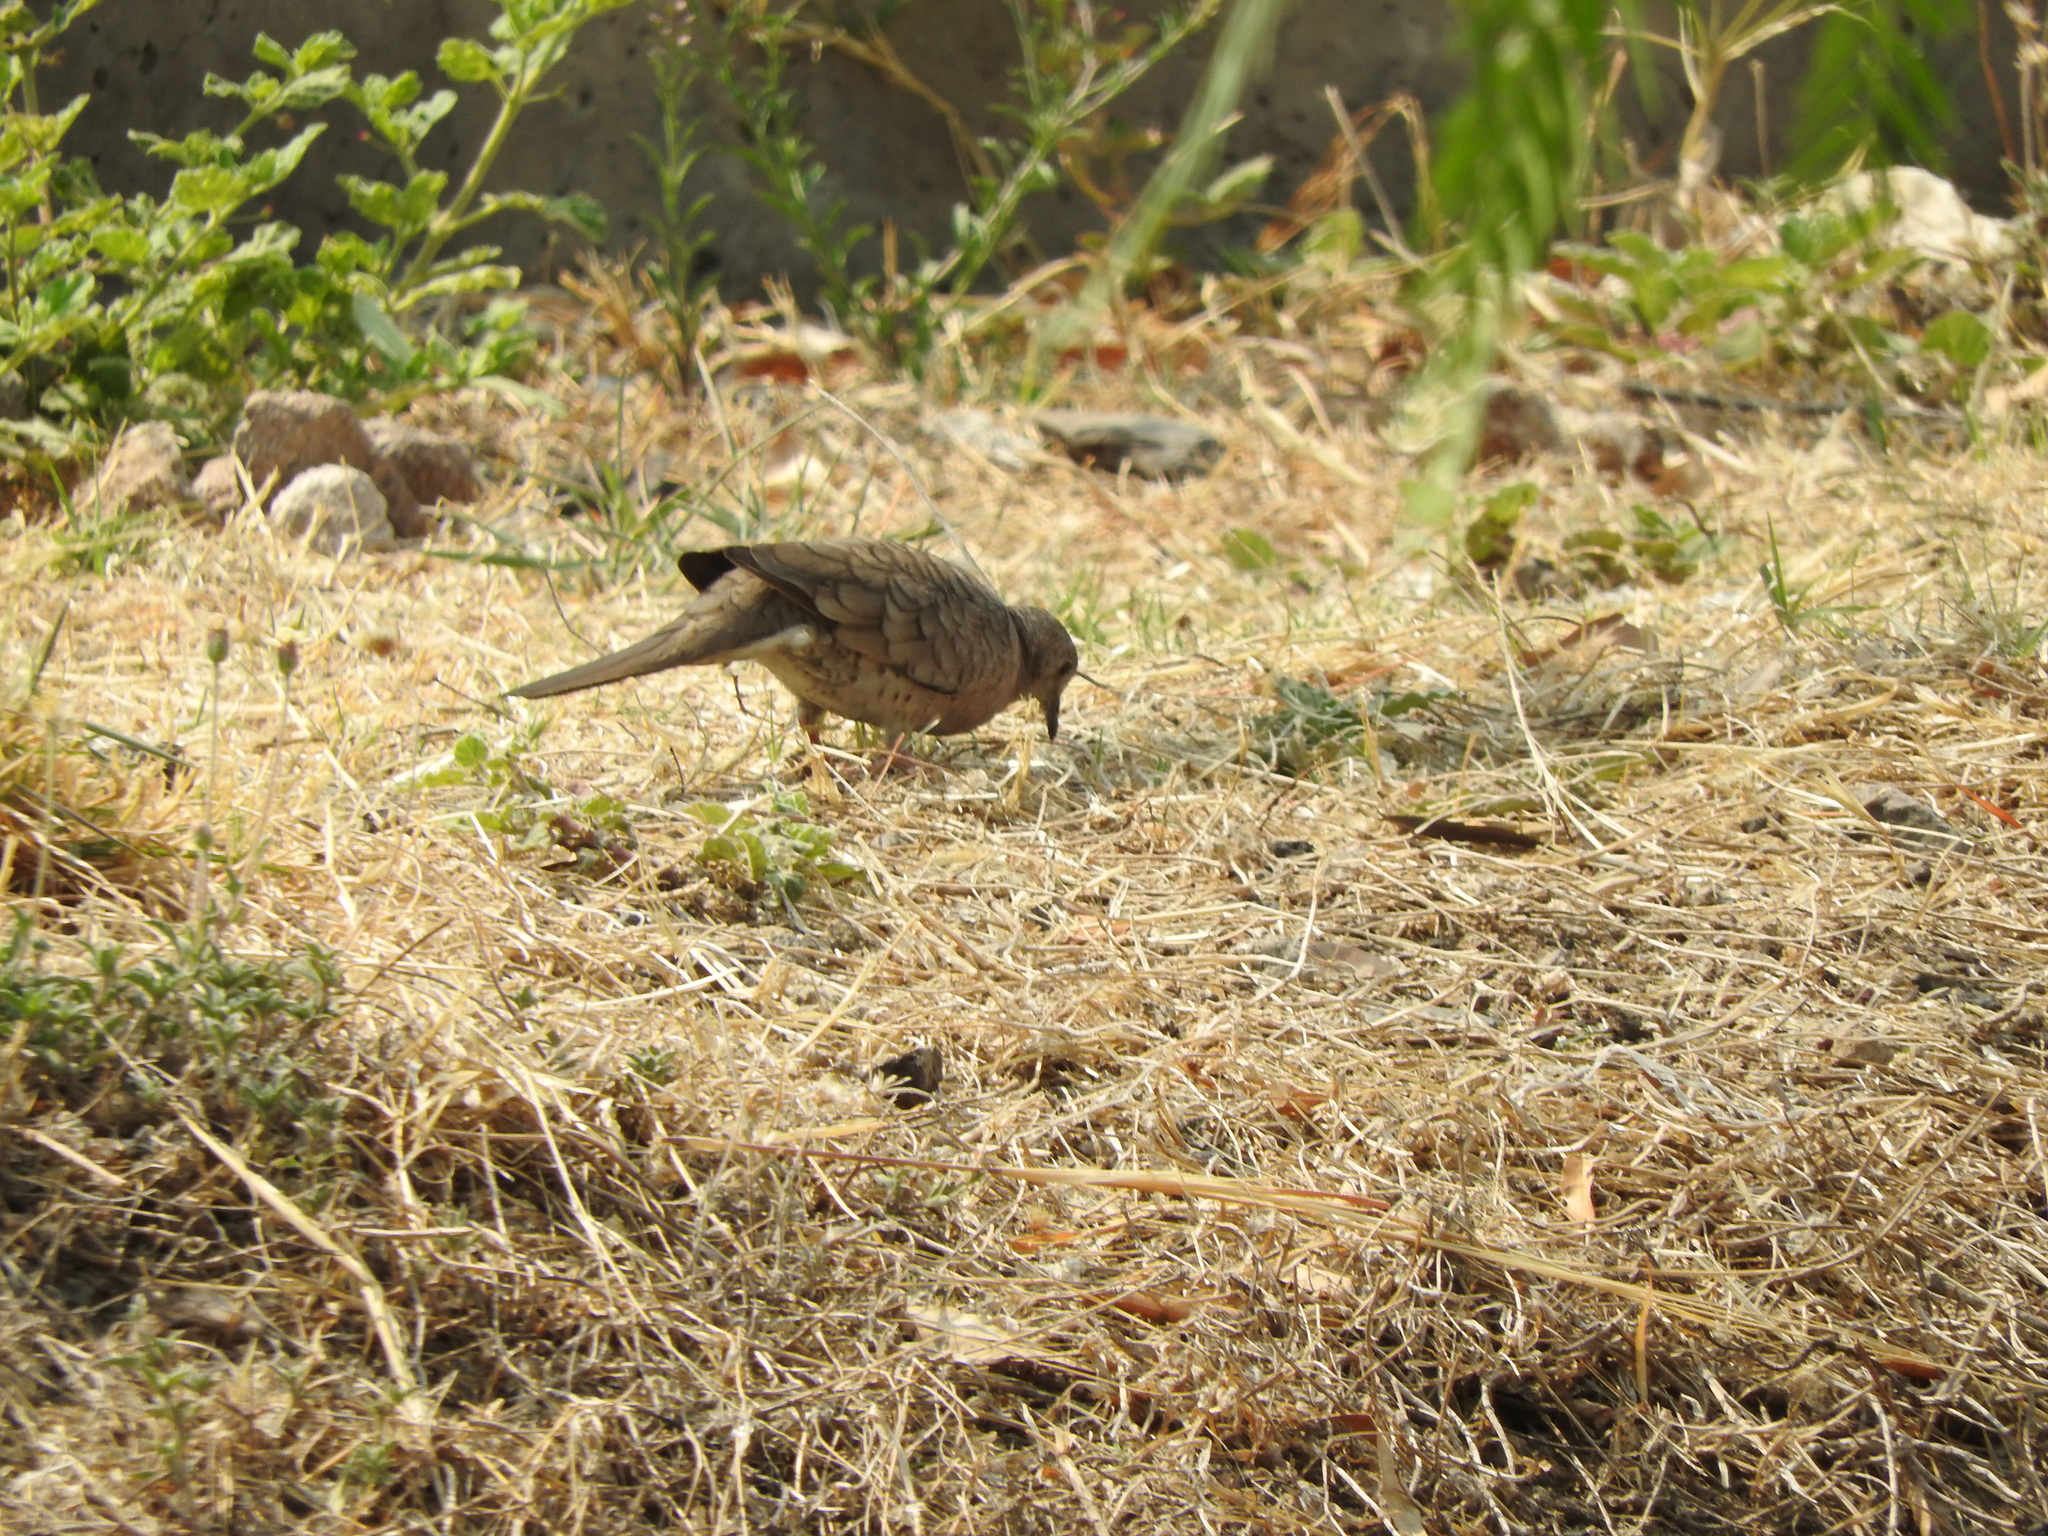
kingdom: Animalia
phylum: Chordata
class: Aves
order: Columbiformes
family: Columbidae
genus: Columbina
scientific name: Columbina inca
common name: Inca dove
